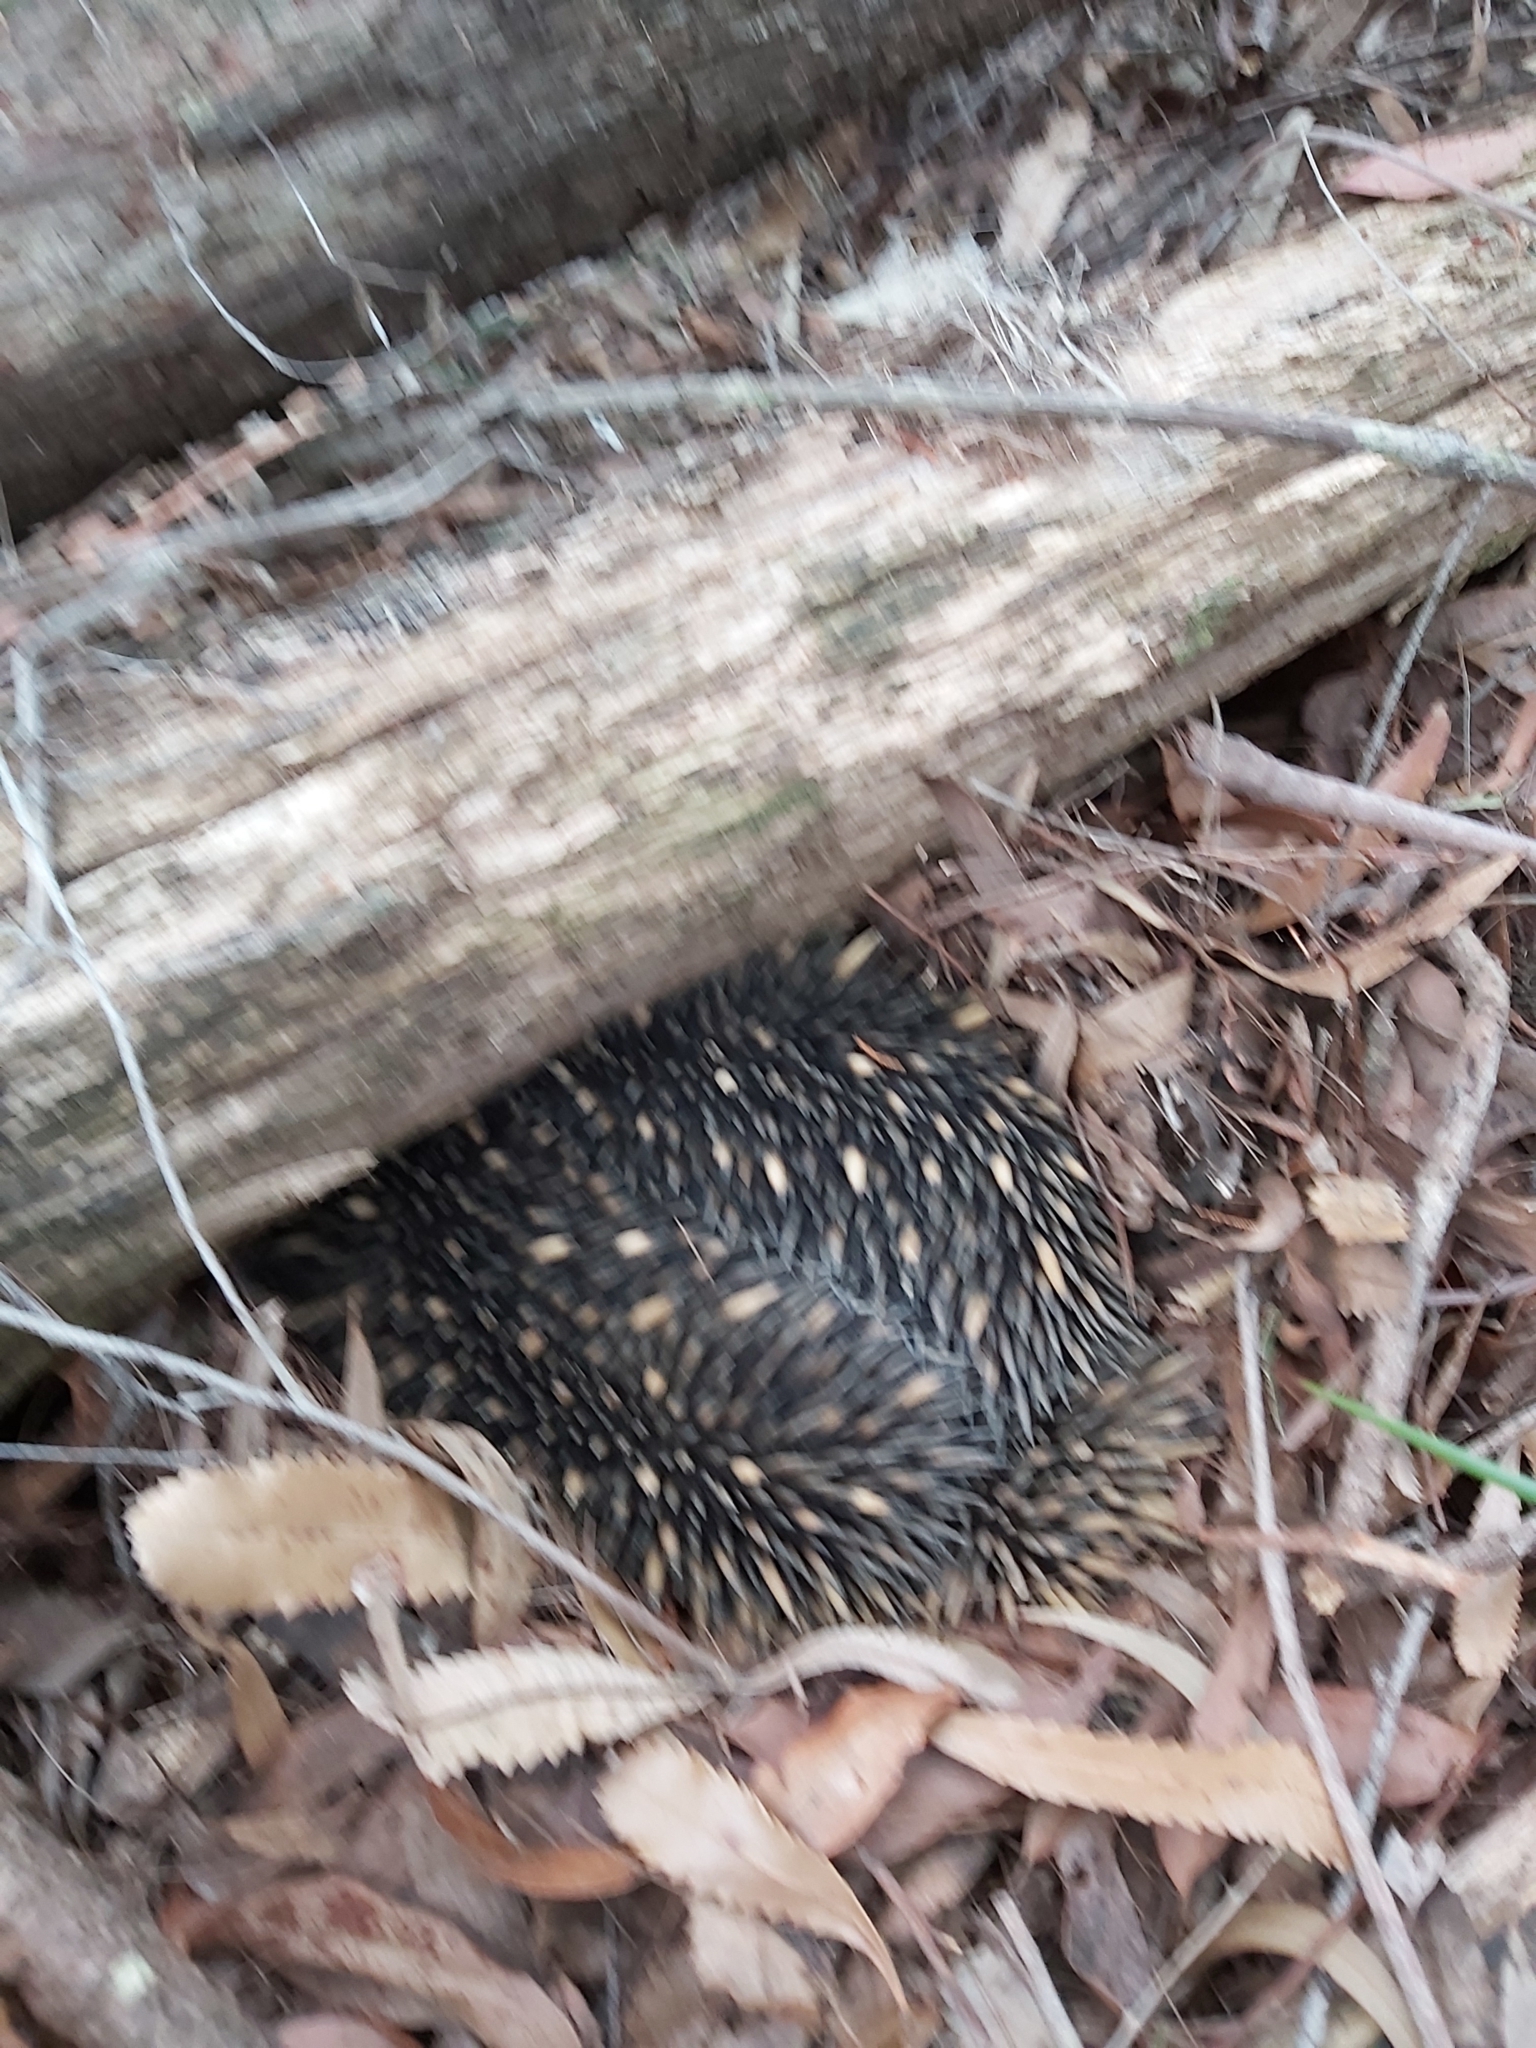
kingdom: Animalia
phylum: Chordata
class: Mammalia
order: Monotremata
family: Tachyglossidae
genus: Tachyglossus
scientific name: Tachyglossus aculeatus
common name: Short-beaked echidna
